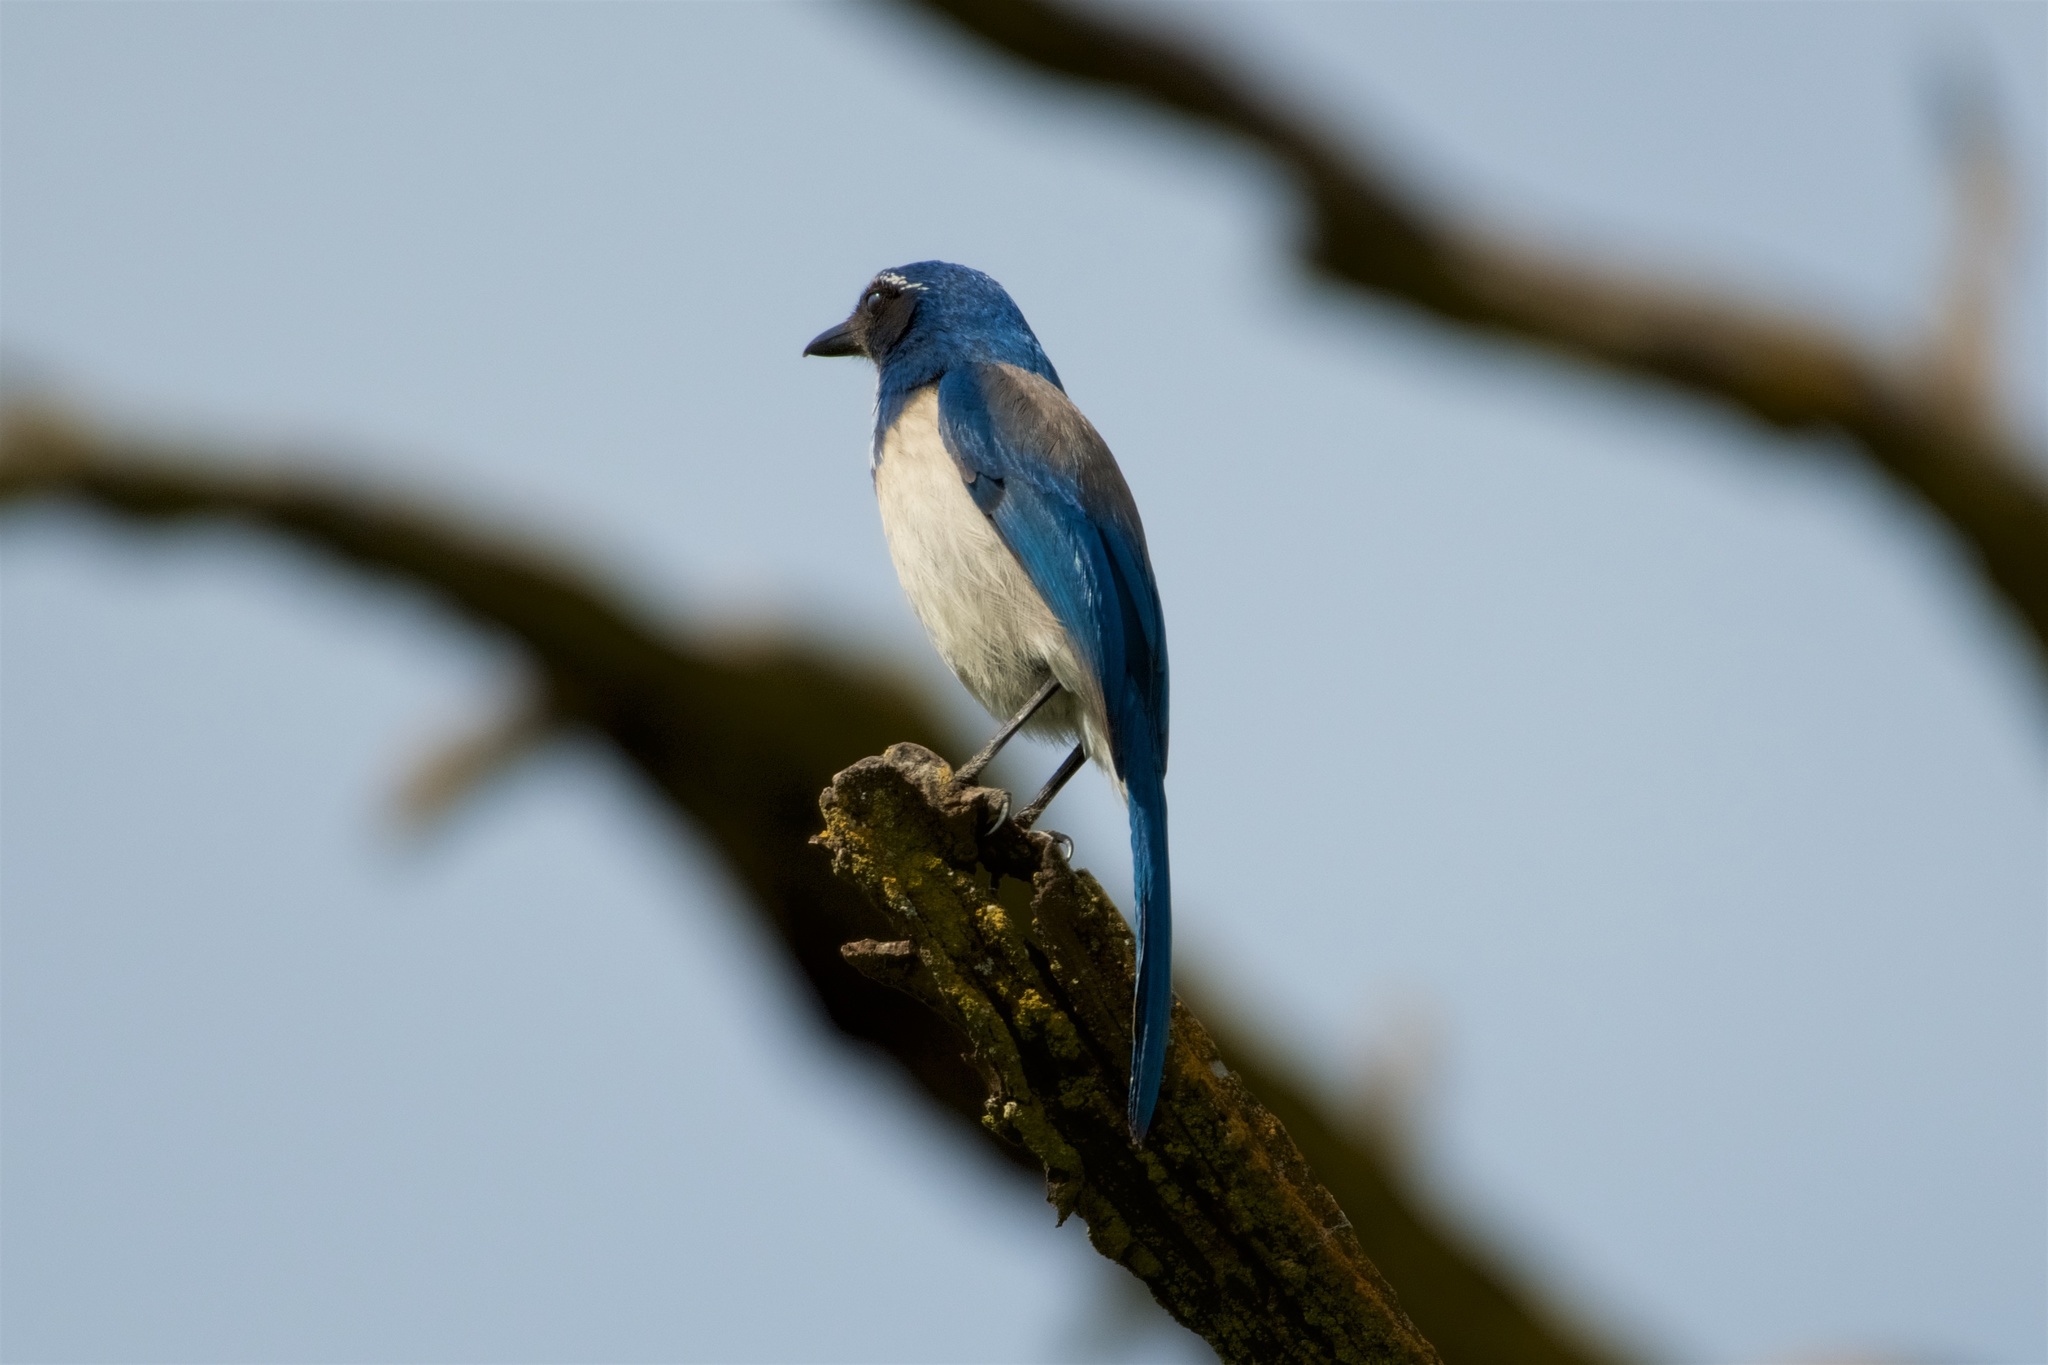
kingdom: Animalia
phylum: Chordata
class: Aves
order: Passeriformes
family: Corvidae
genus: Aphelocoma
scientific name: Aphelocoma californica
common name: California scrub-jay
